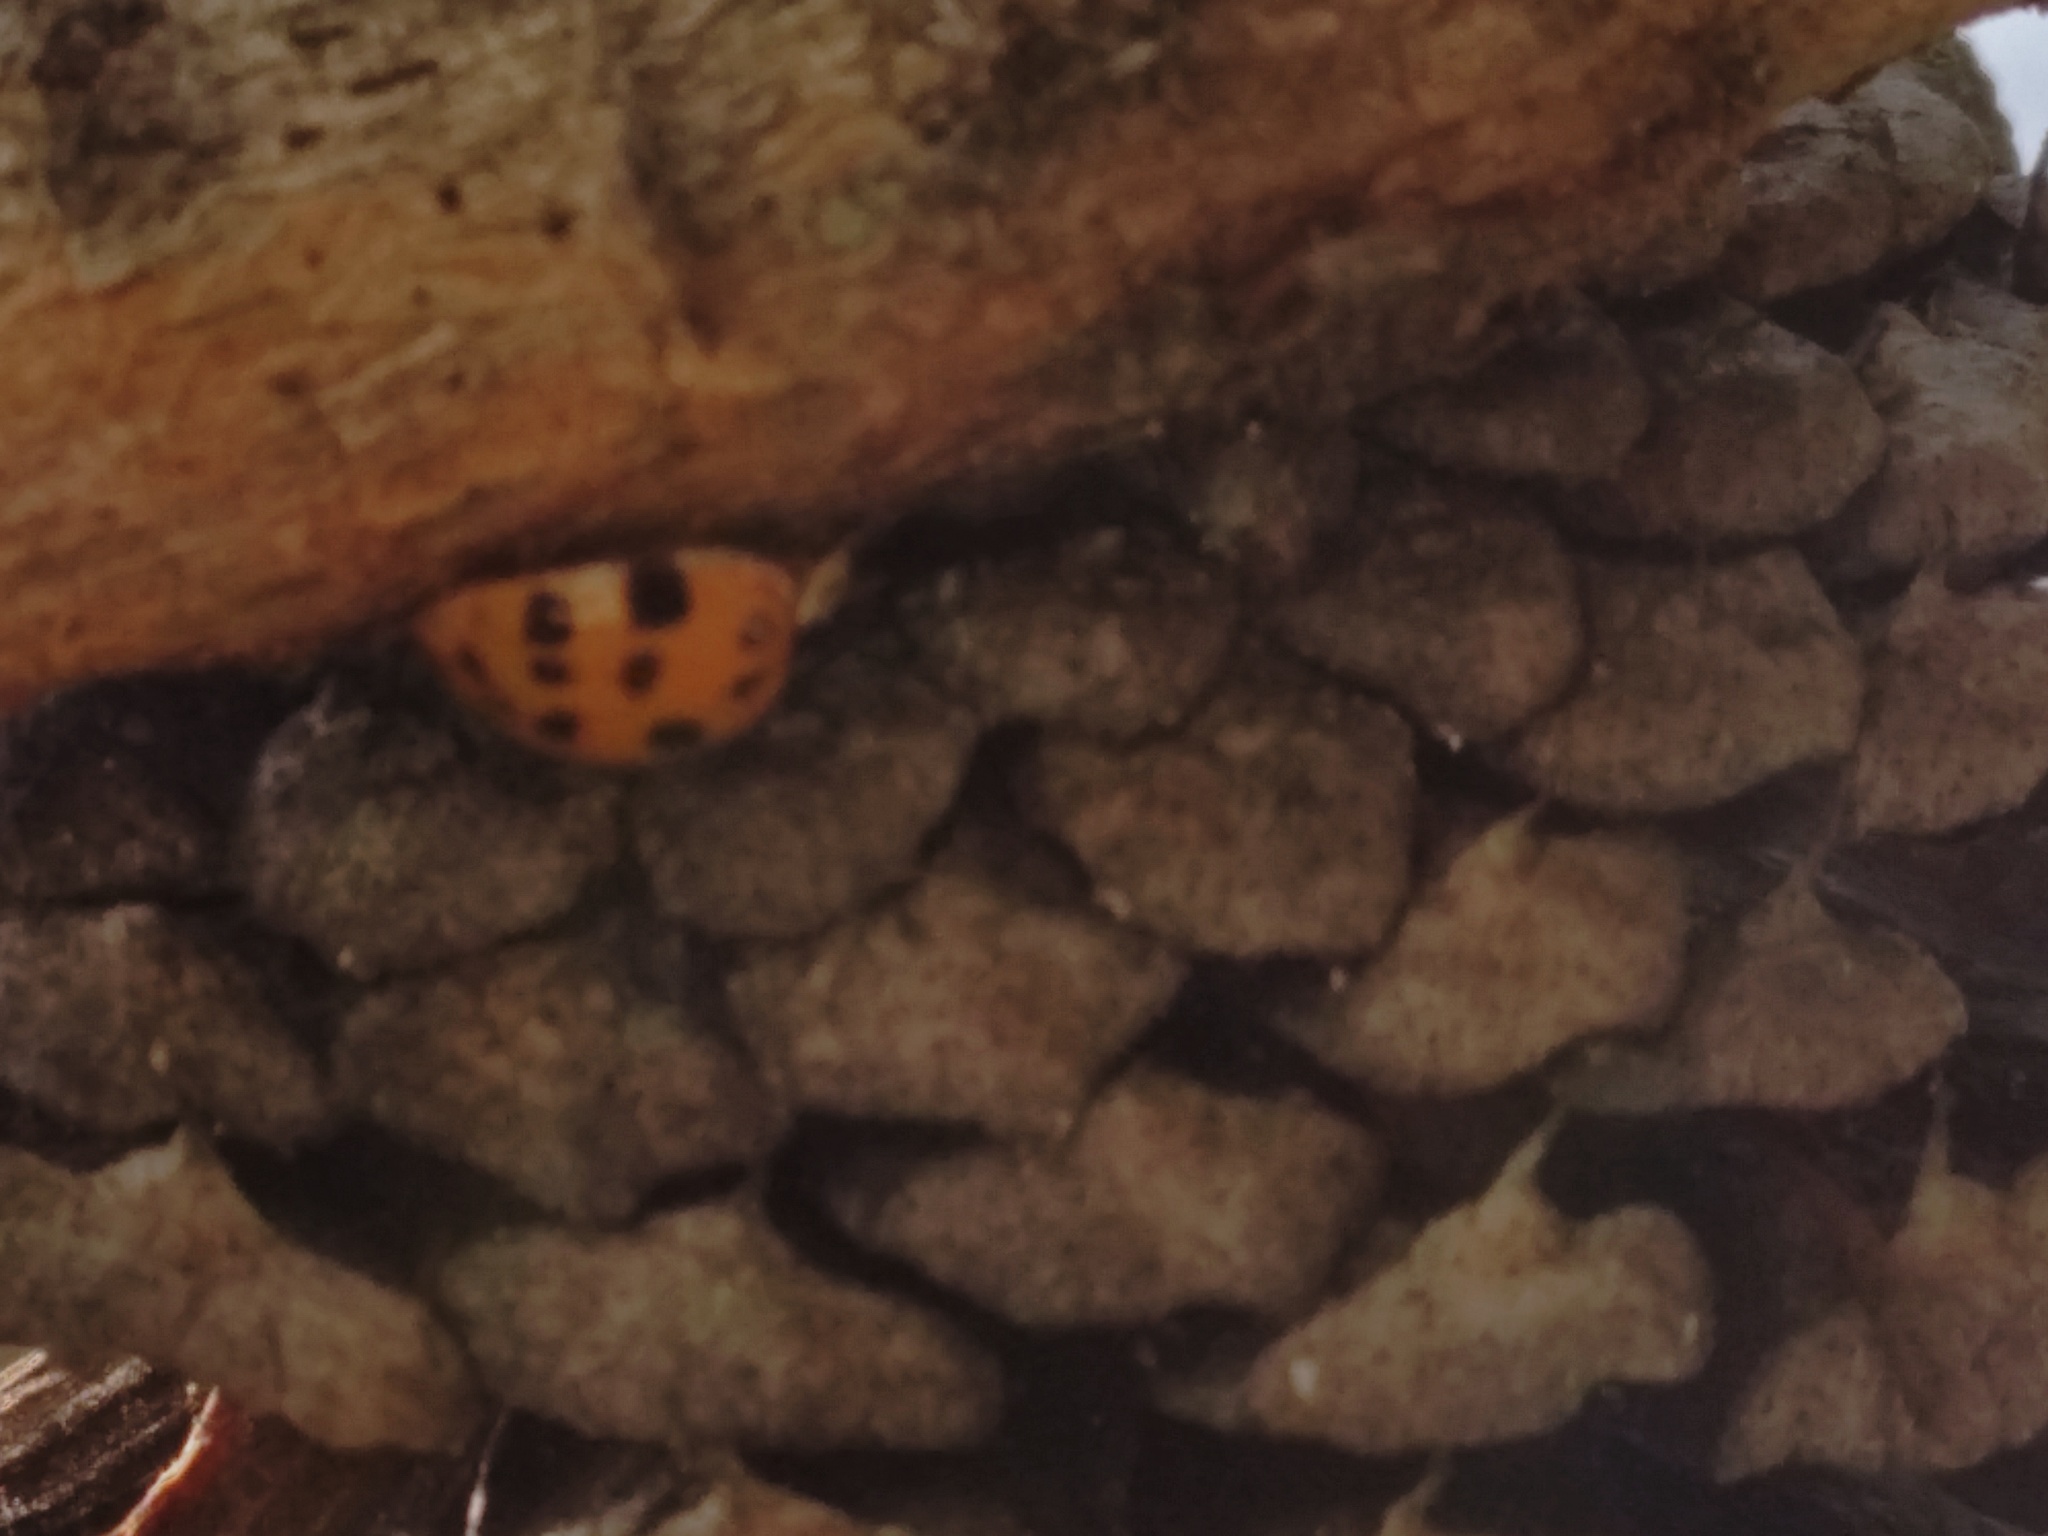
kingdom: Animalia
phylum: Arthropoda
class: Insecta
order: Coleoptera
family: Coccinellidae
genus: Harmonia
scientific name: Harmonia axyridis
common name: Harlequin ladybird
